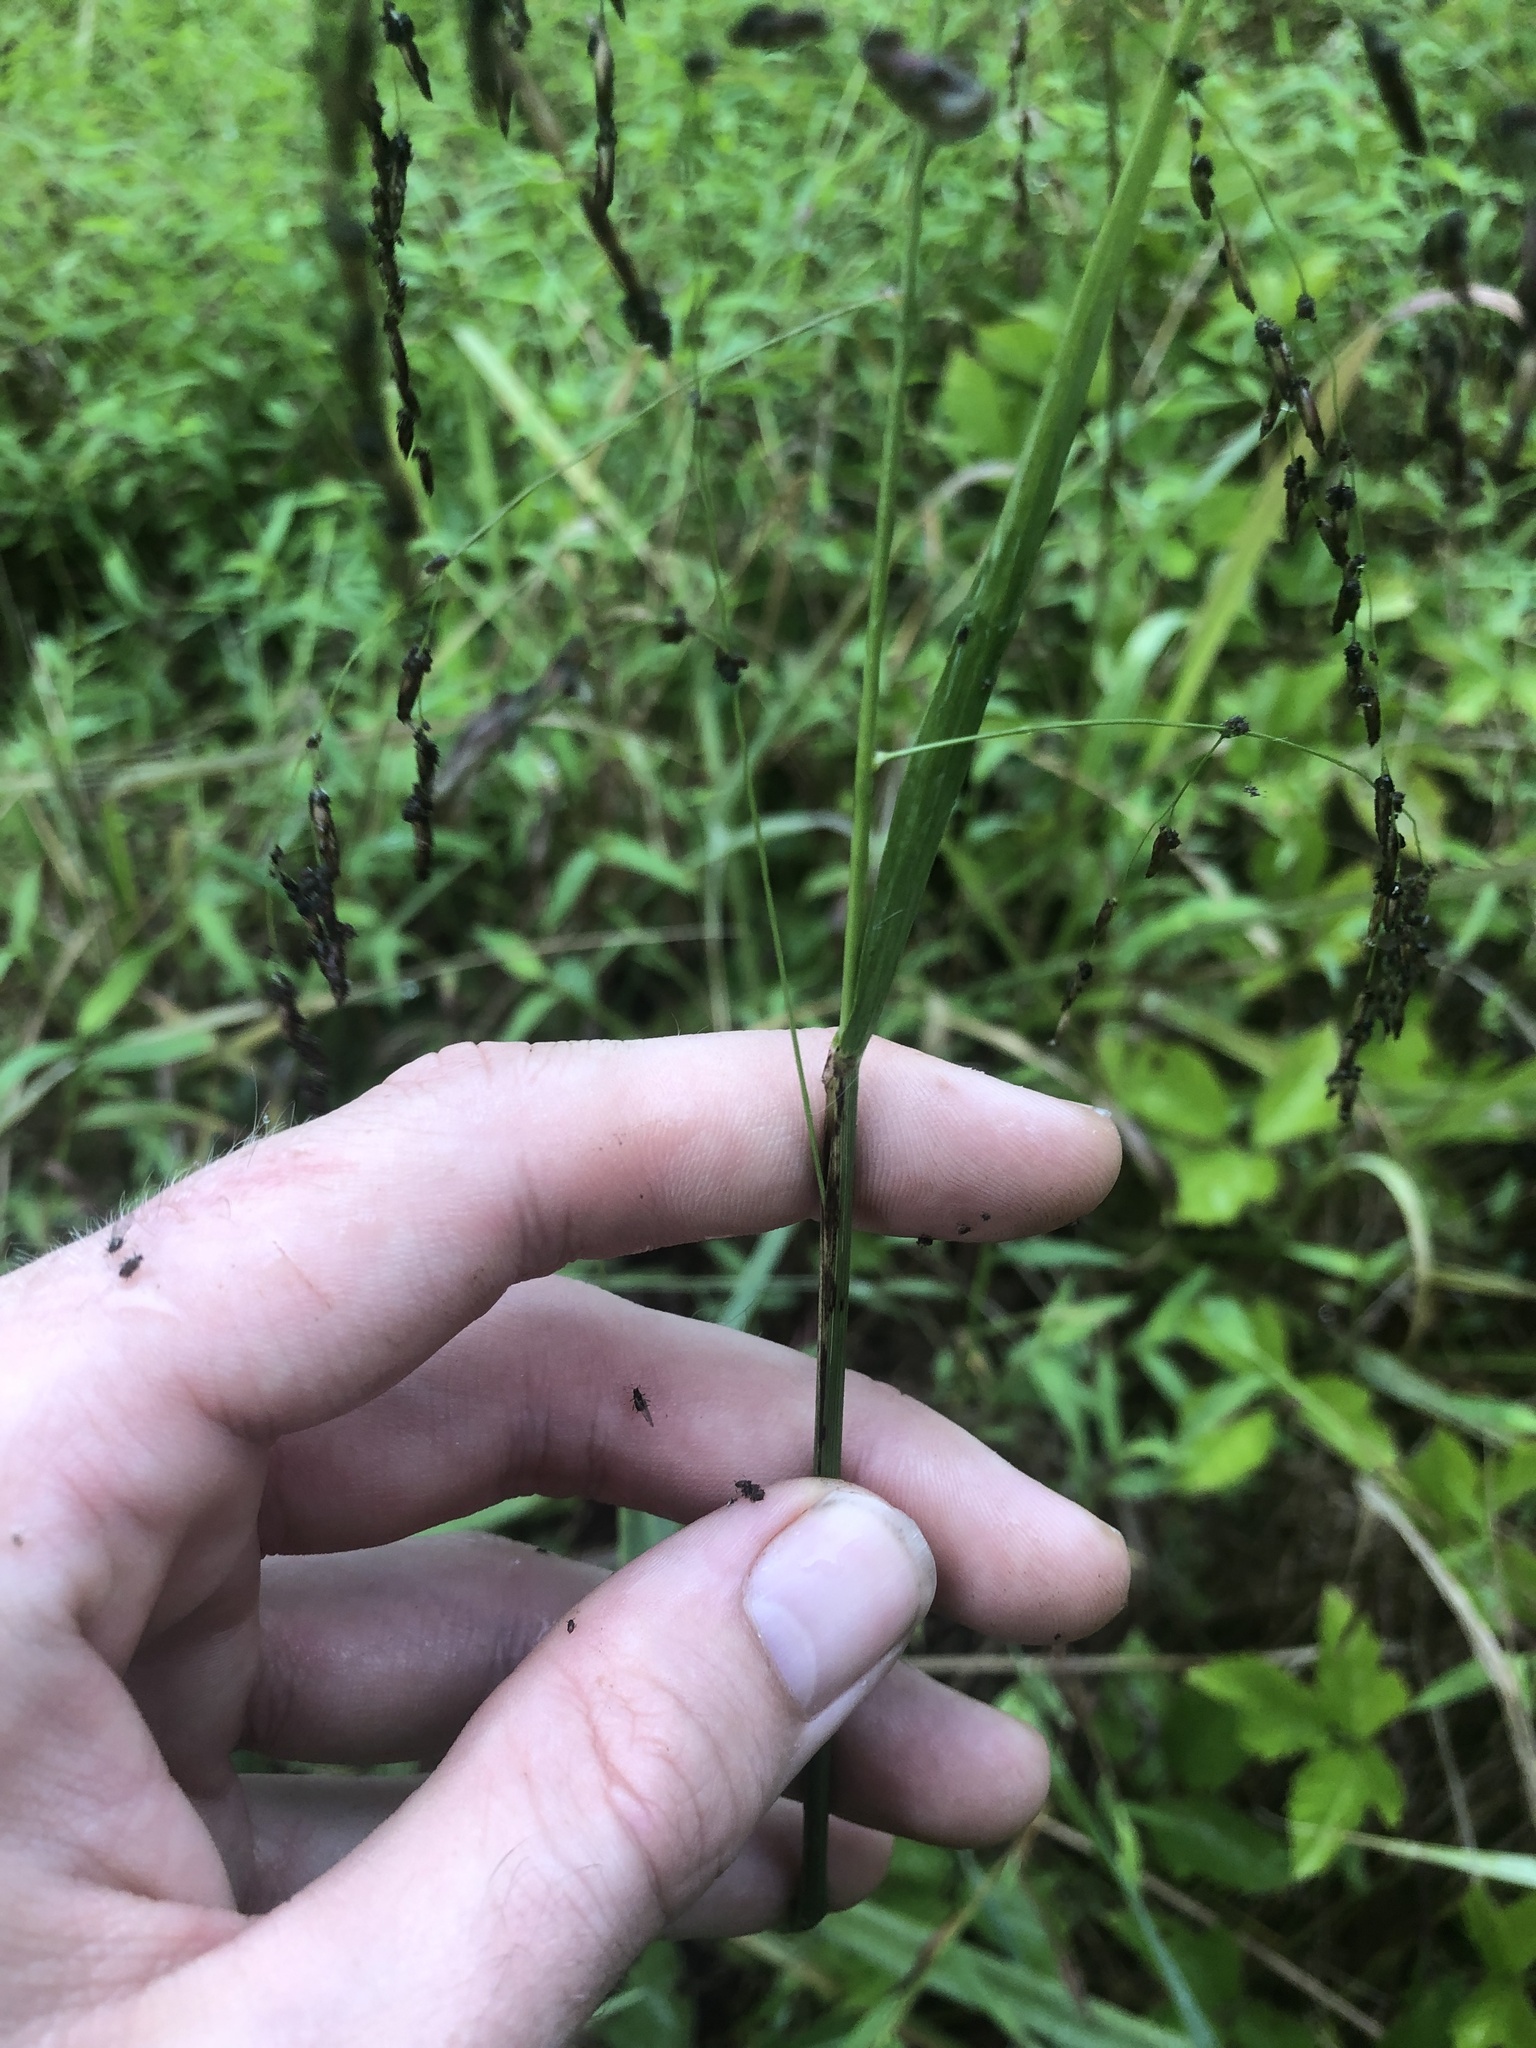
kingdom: Plantae
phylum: Tracheophyta
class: Liliopsida
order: Poales
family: Poaceae
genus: Tridens
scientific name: Tridens flavus
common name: Purpletop
